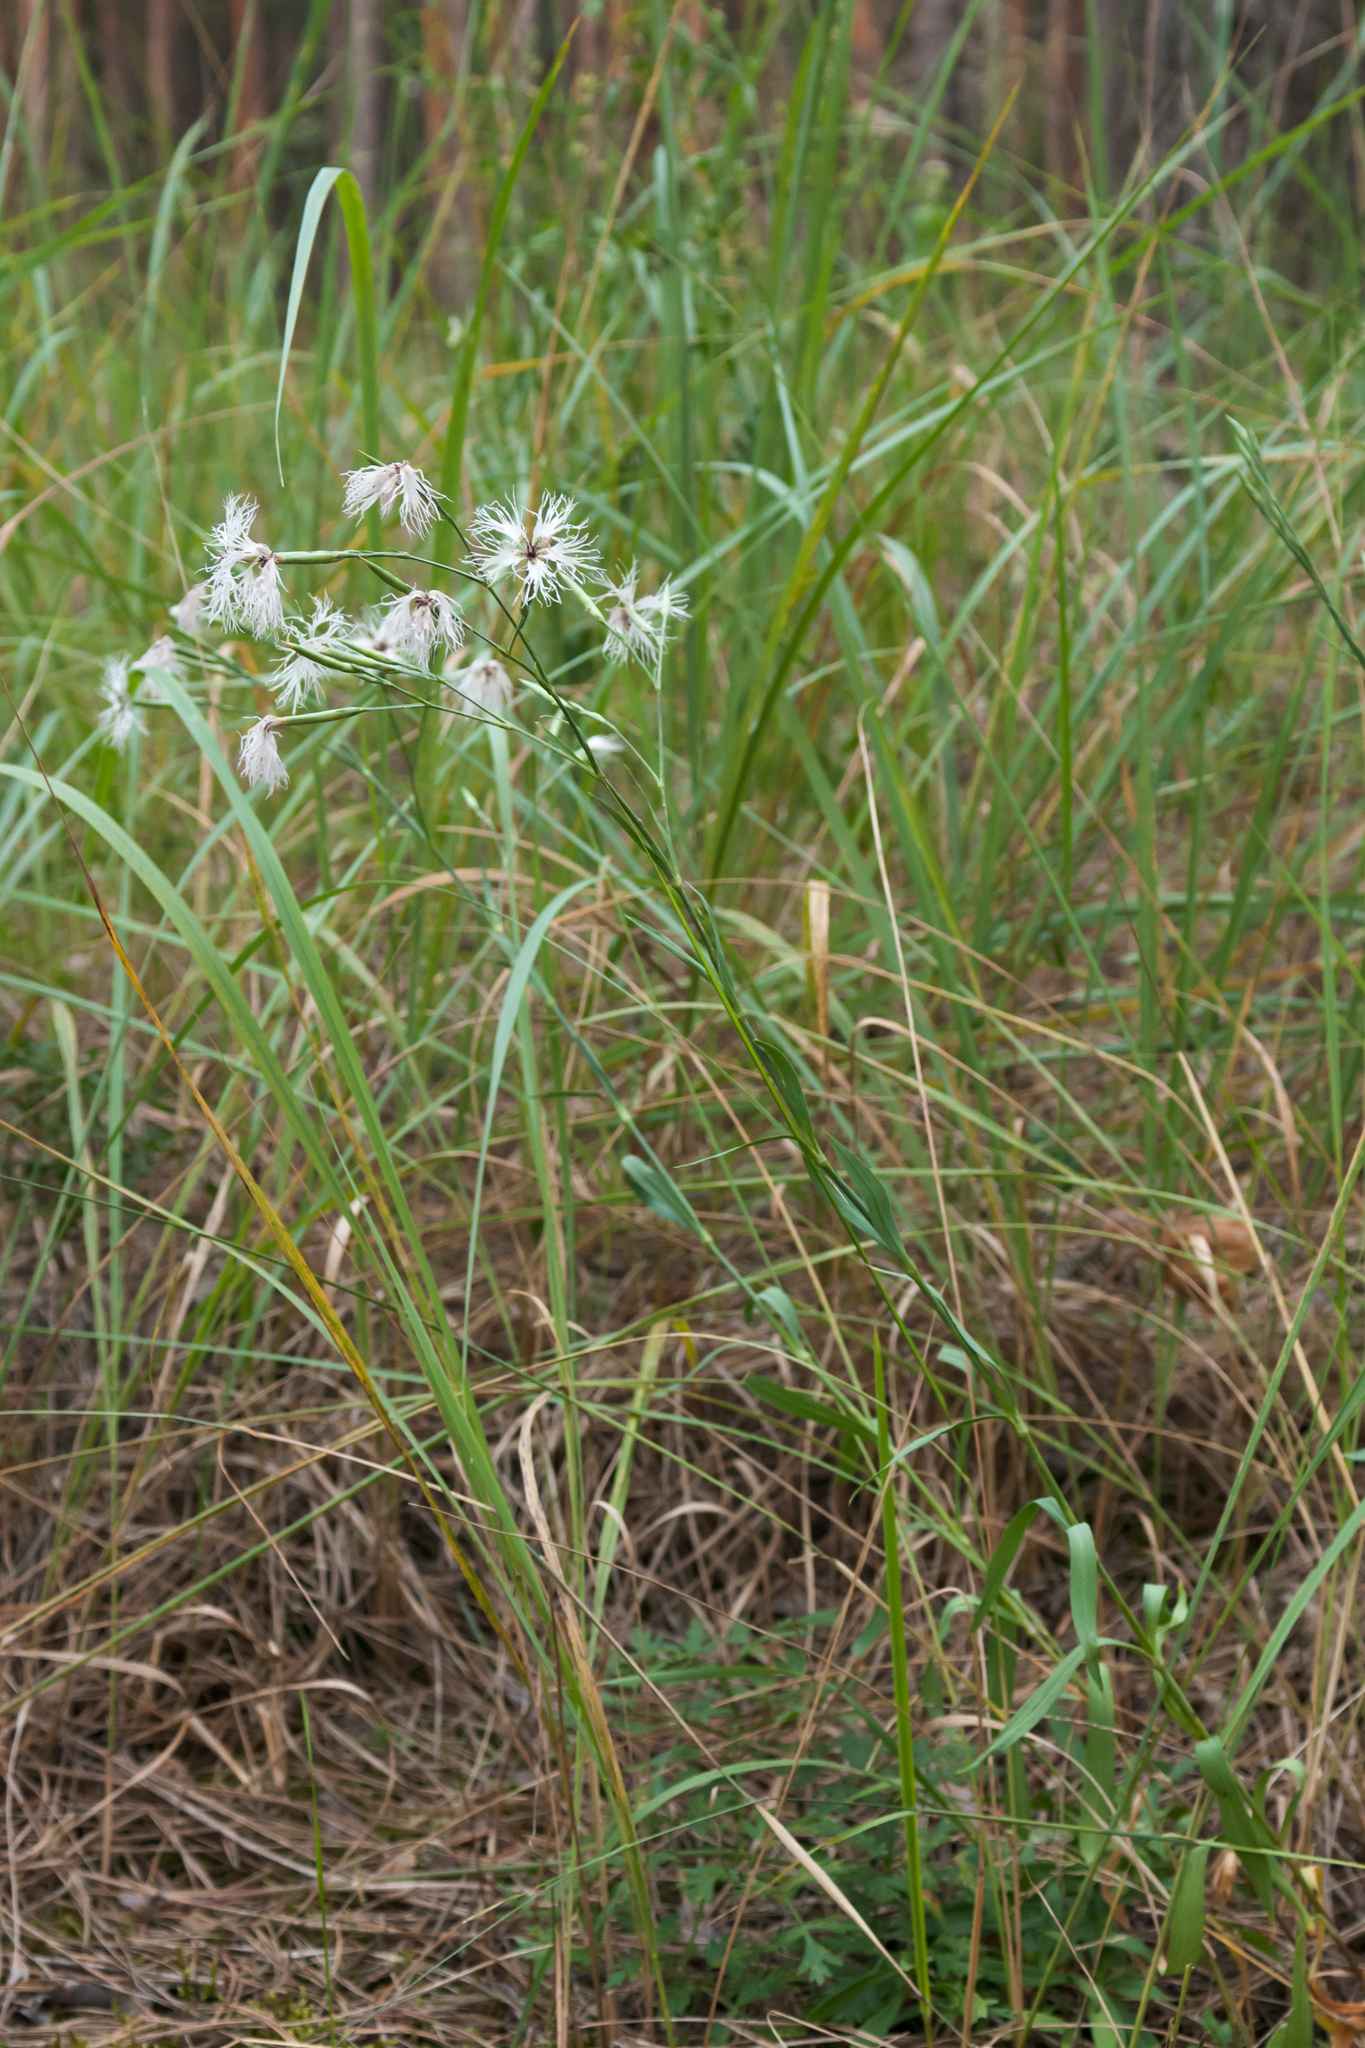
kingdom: Plantae
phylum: Tracheophyta
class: Magnoliopsida
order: Caryophyllales
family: Caryophyllaceae
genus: Dianthus
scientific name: Dianthus superbus
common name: Fringed pink
